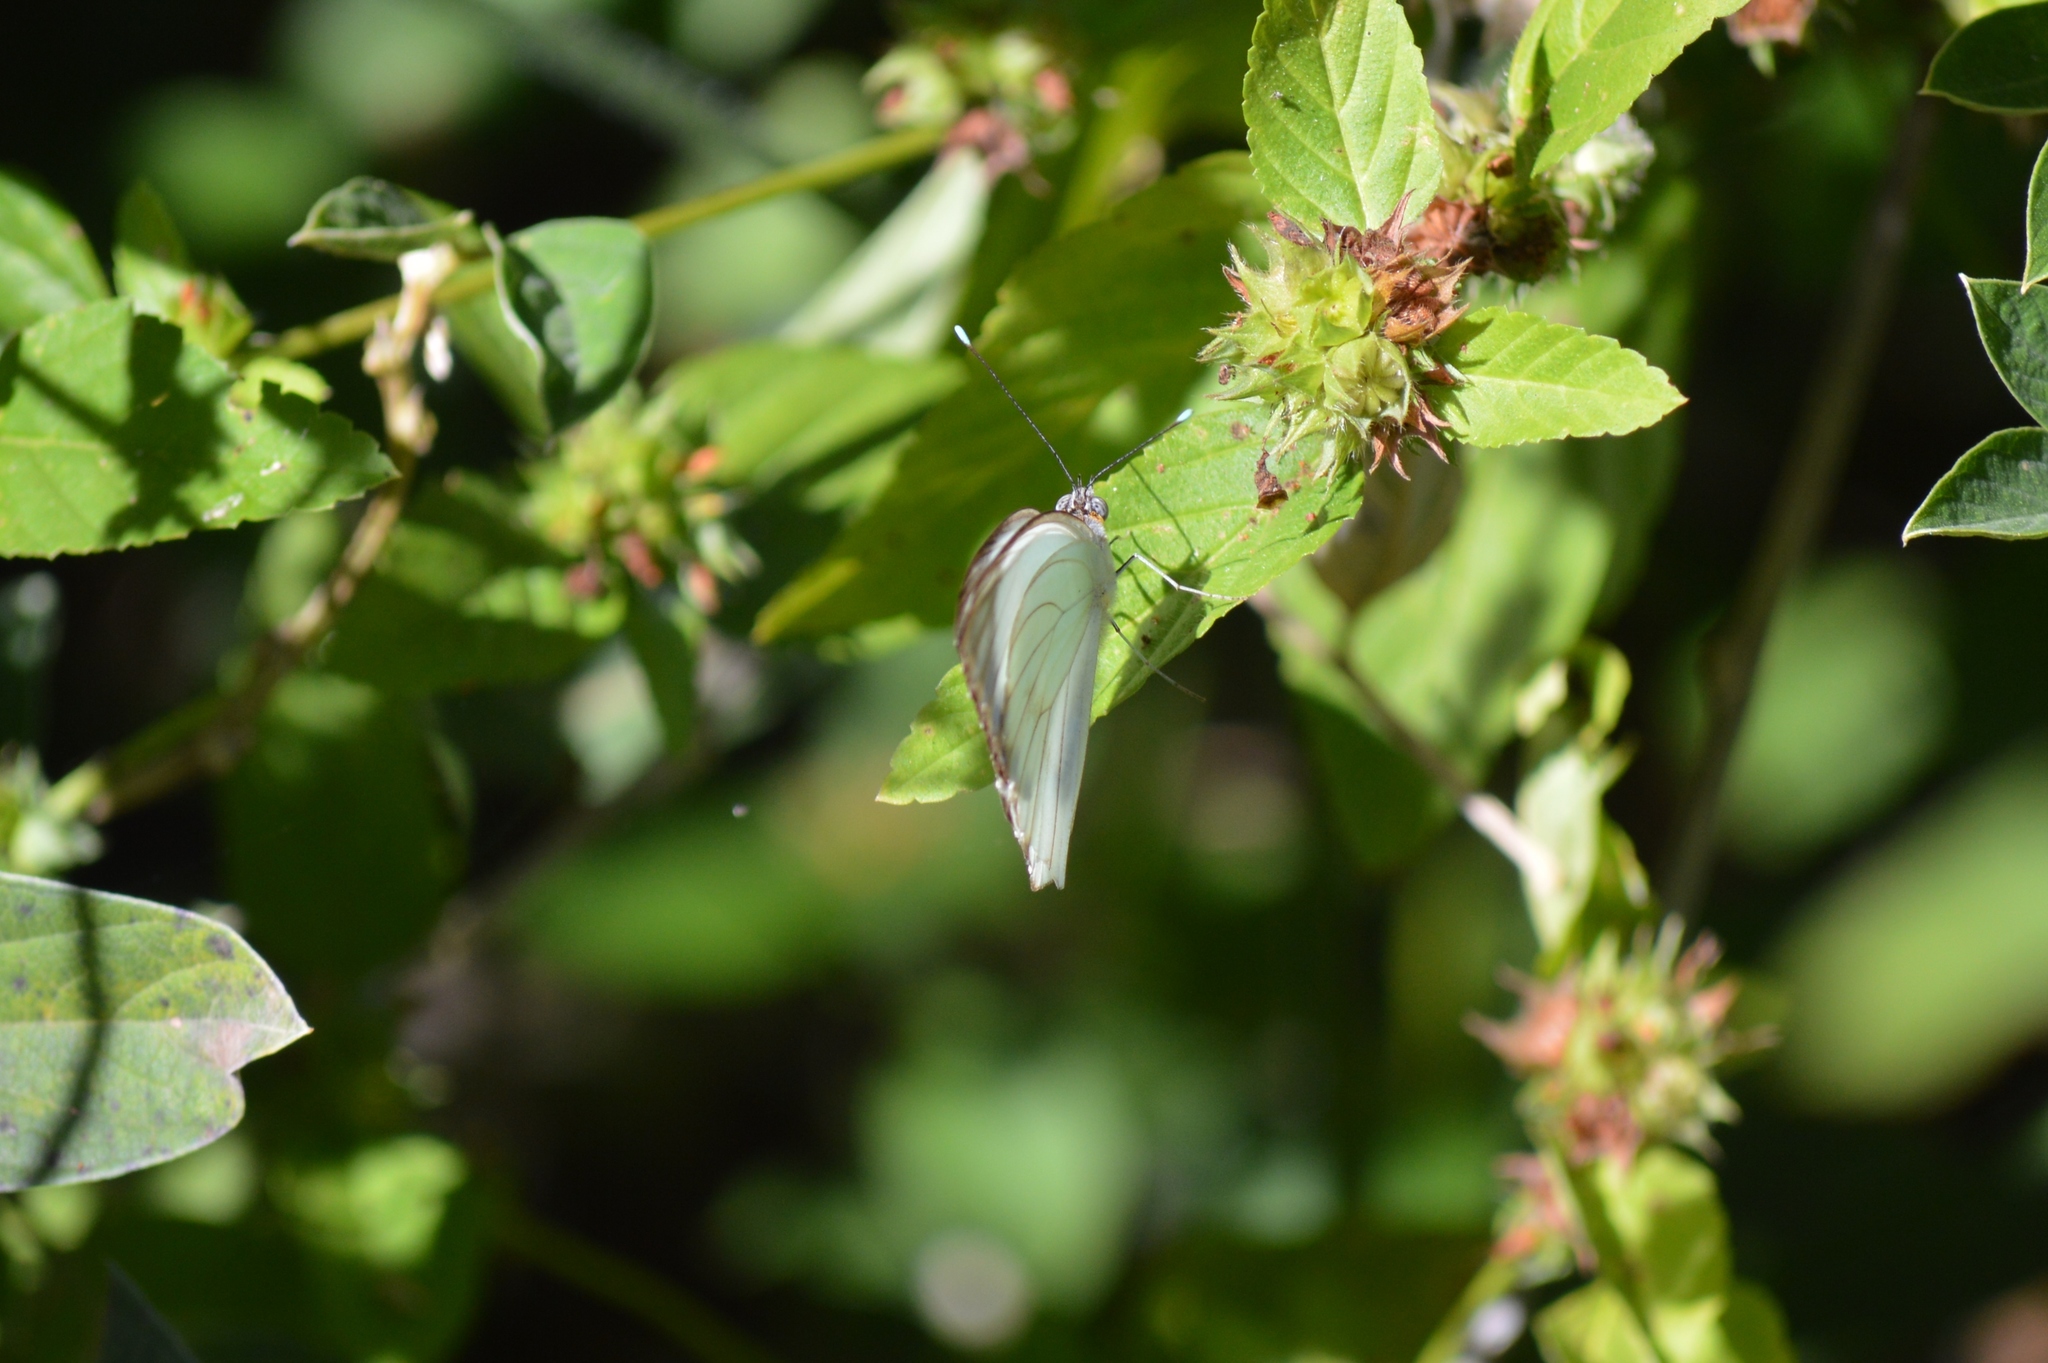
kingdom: Animalia
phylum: Arthropoda
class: Insecta
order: Lepidoptera
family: Pieridae
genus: Ascia
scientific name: Ascia monuste
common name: Great southern white
